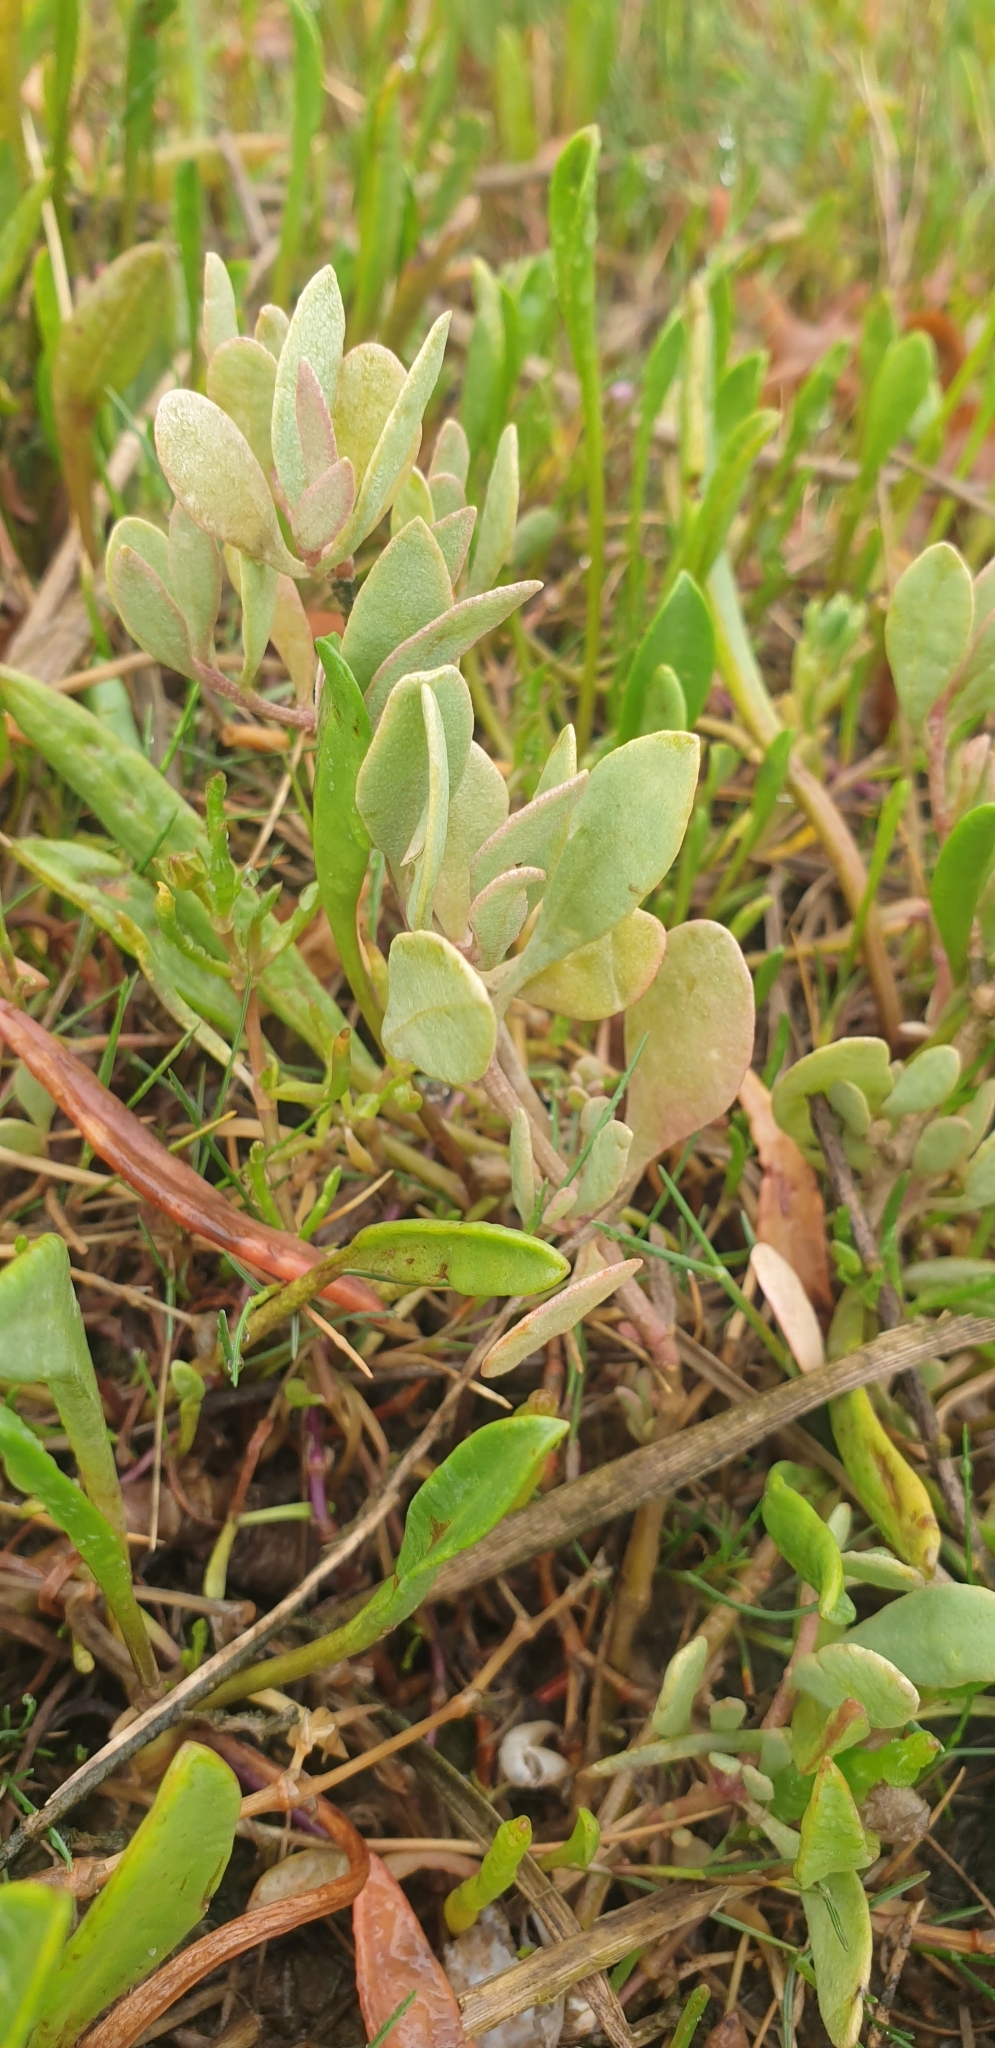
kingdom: Plantae
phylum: Tracheophyta
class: Magnoliopsida
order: Caryophyllales
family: Amaranthaceae
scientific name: Amaranthaceae
